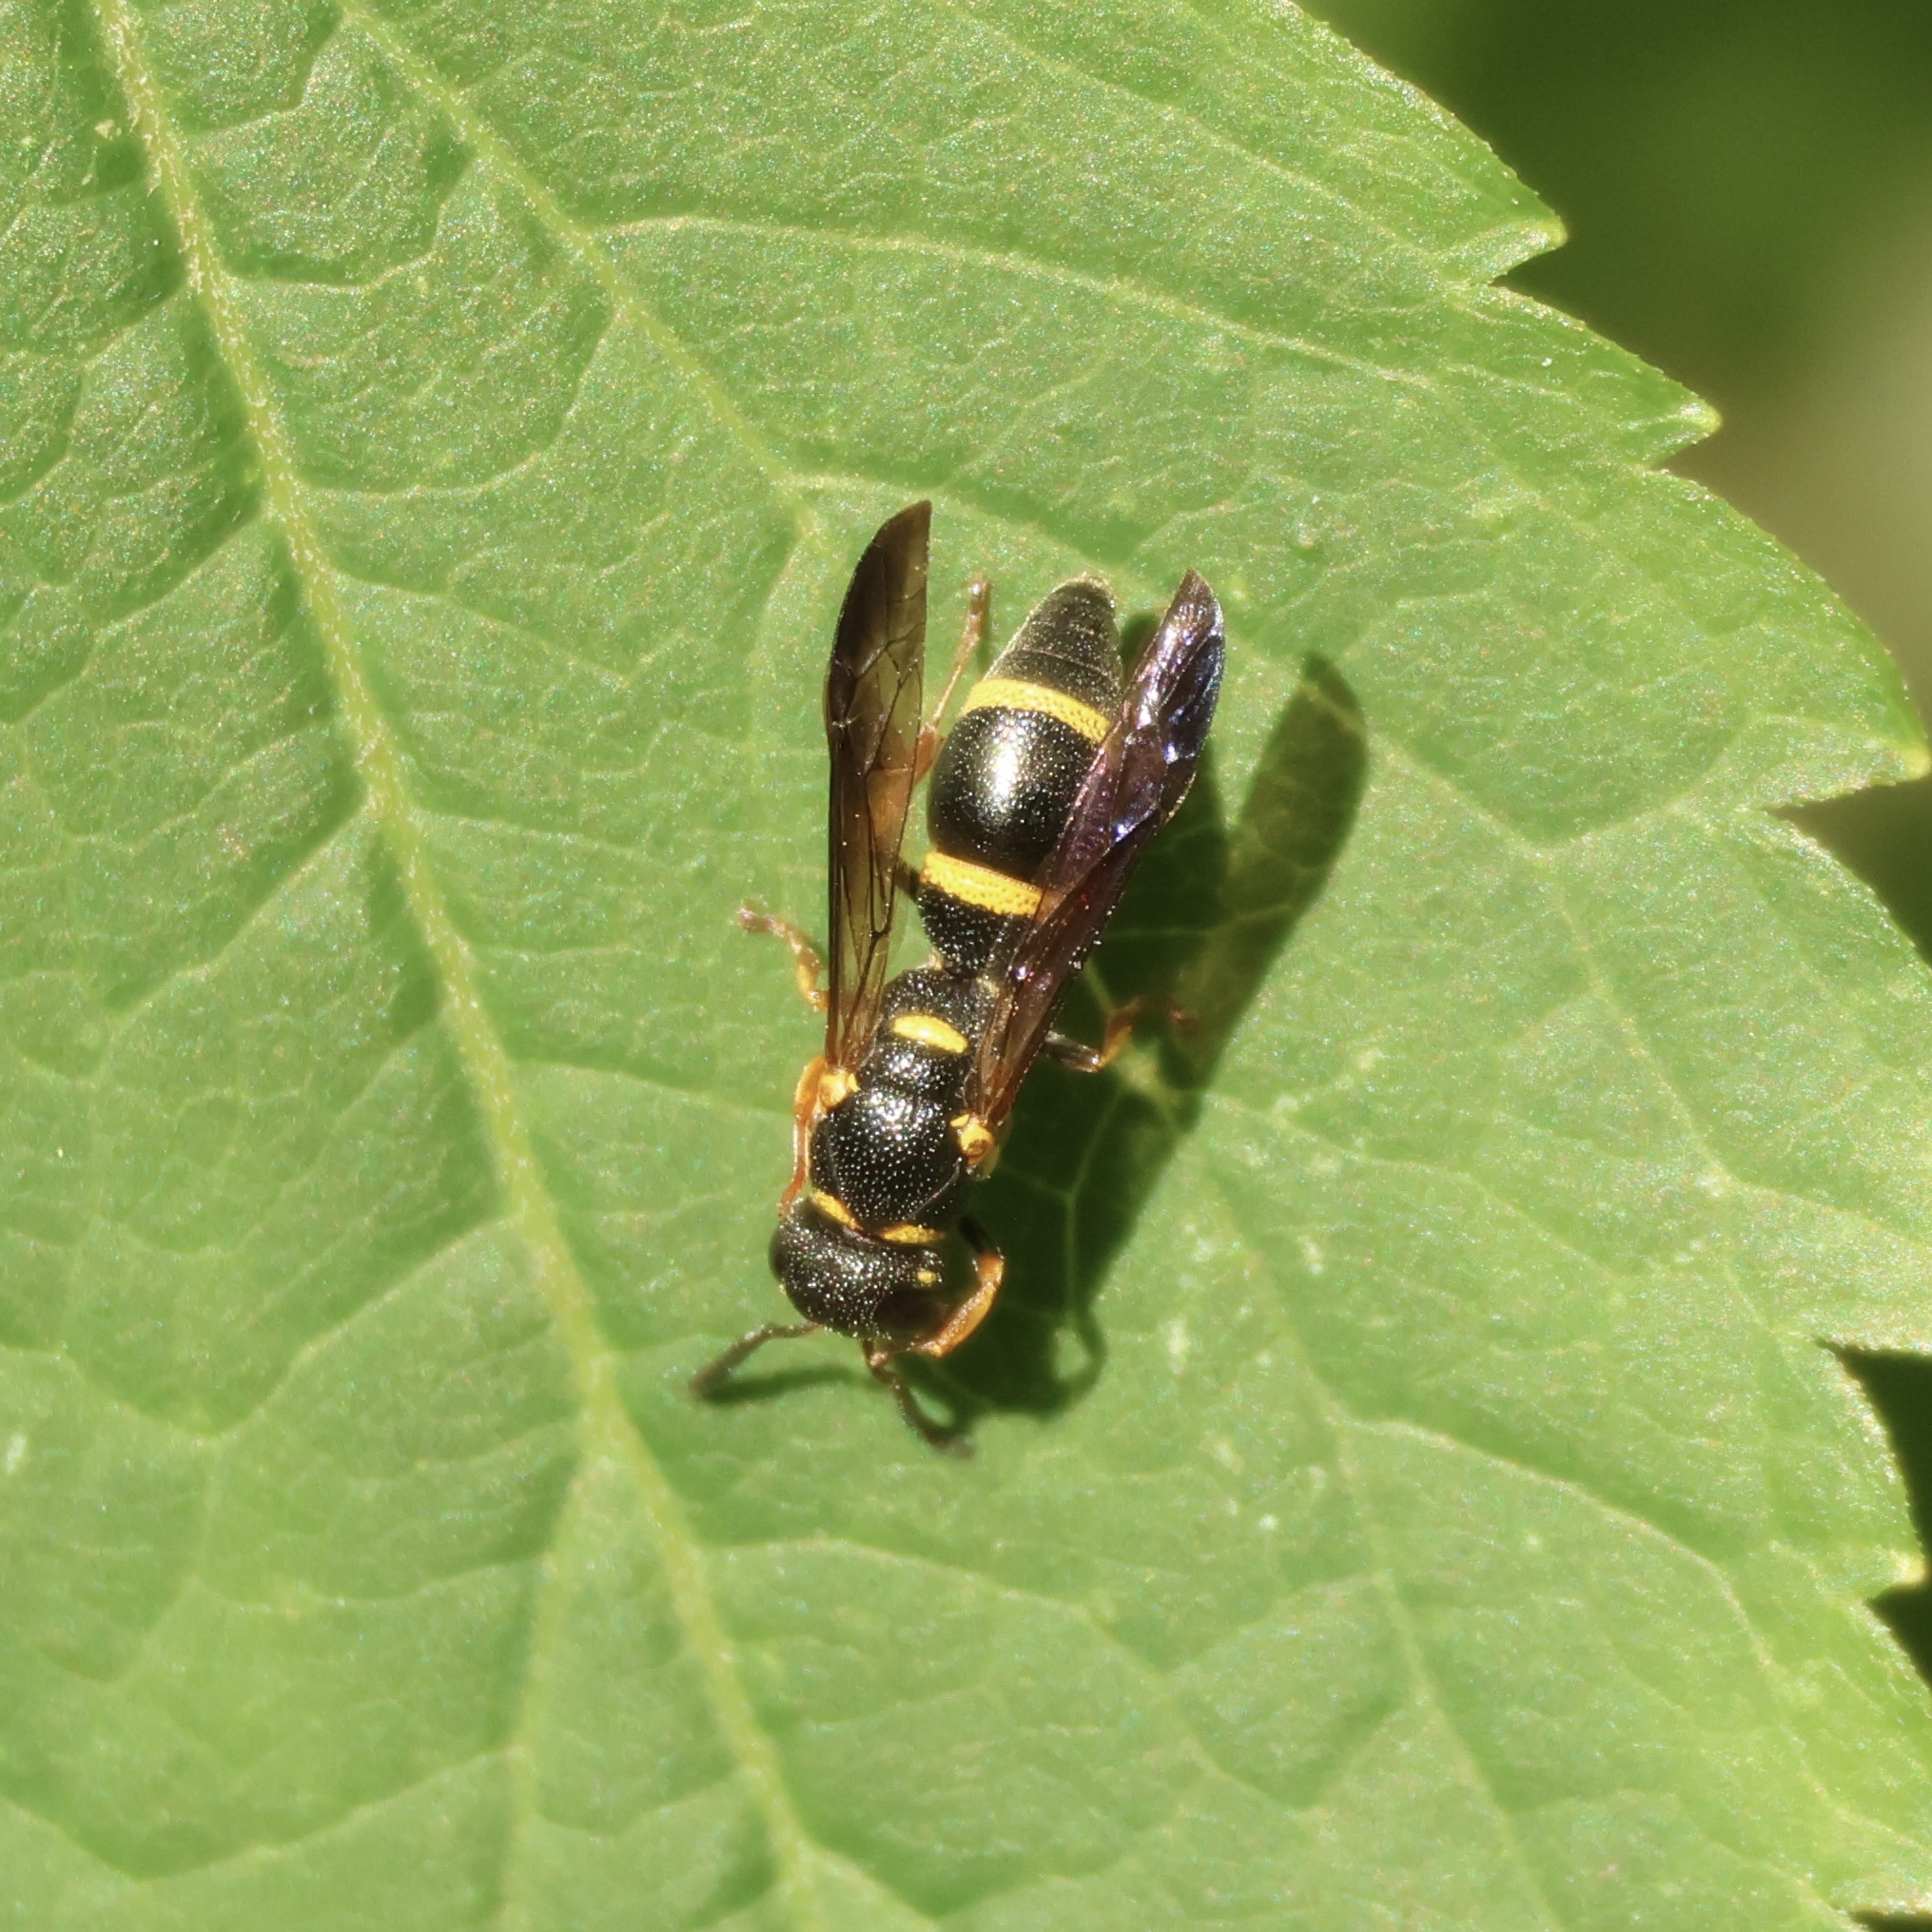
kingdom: Animalia
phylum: Arthropoda
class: Insecta
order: Hymenoptera
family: Eumenidae
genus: Parancistrocerus
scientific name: Parancistrocerus perennis
